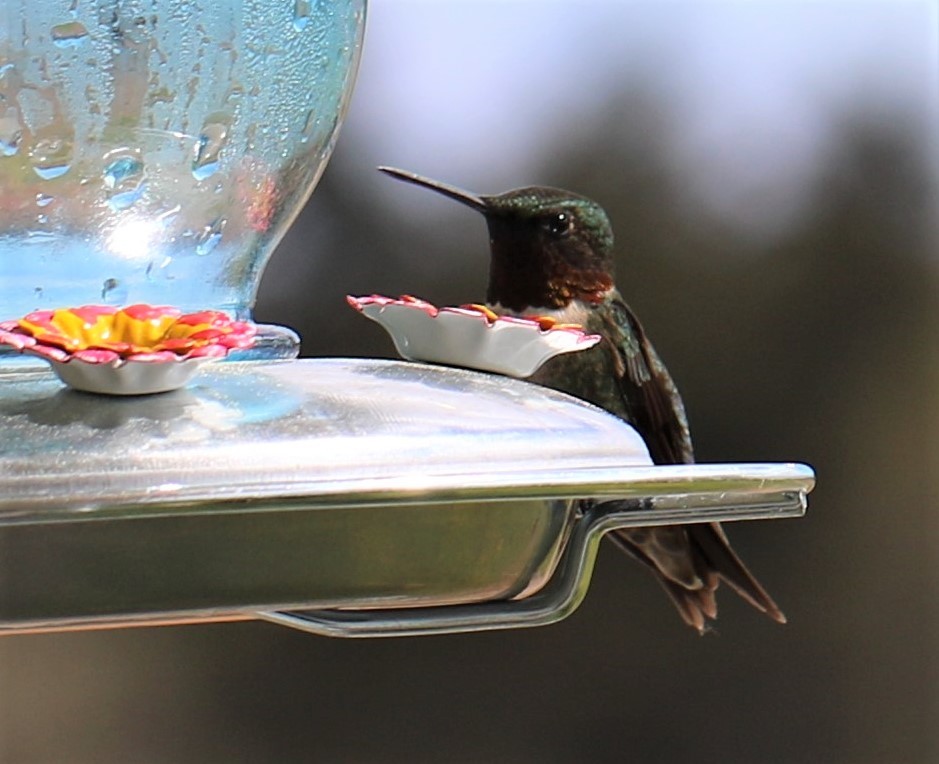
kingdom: Animalia
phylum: Chordata
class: Aves
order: Apodiformes
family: Trochilidae
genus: Archilochus
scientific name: Archilochus colubris
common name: Ruby-throated hummingbird
